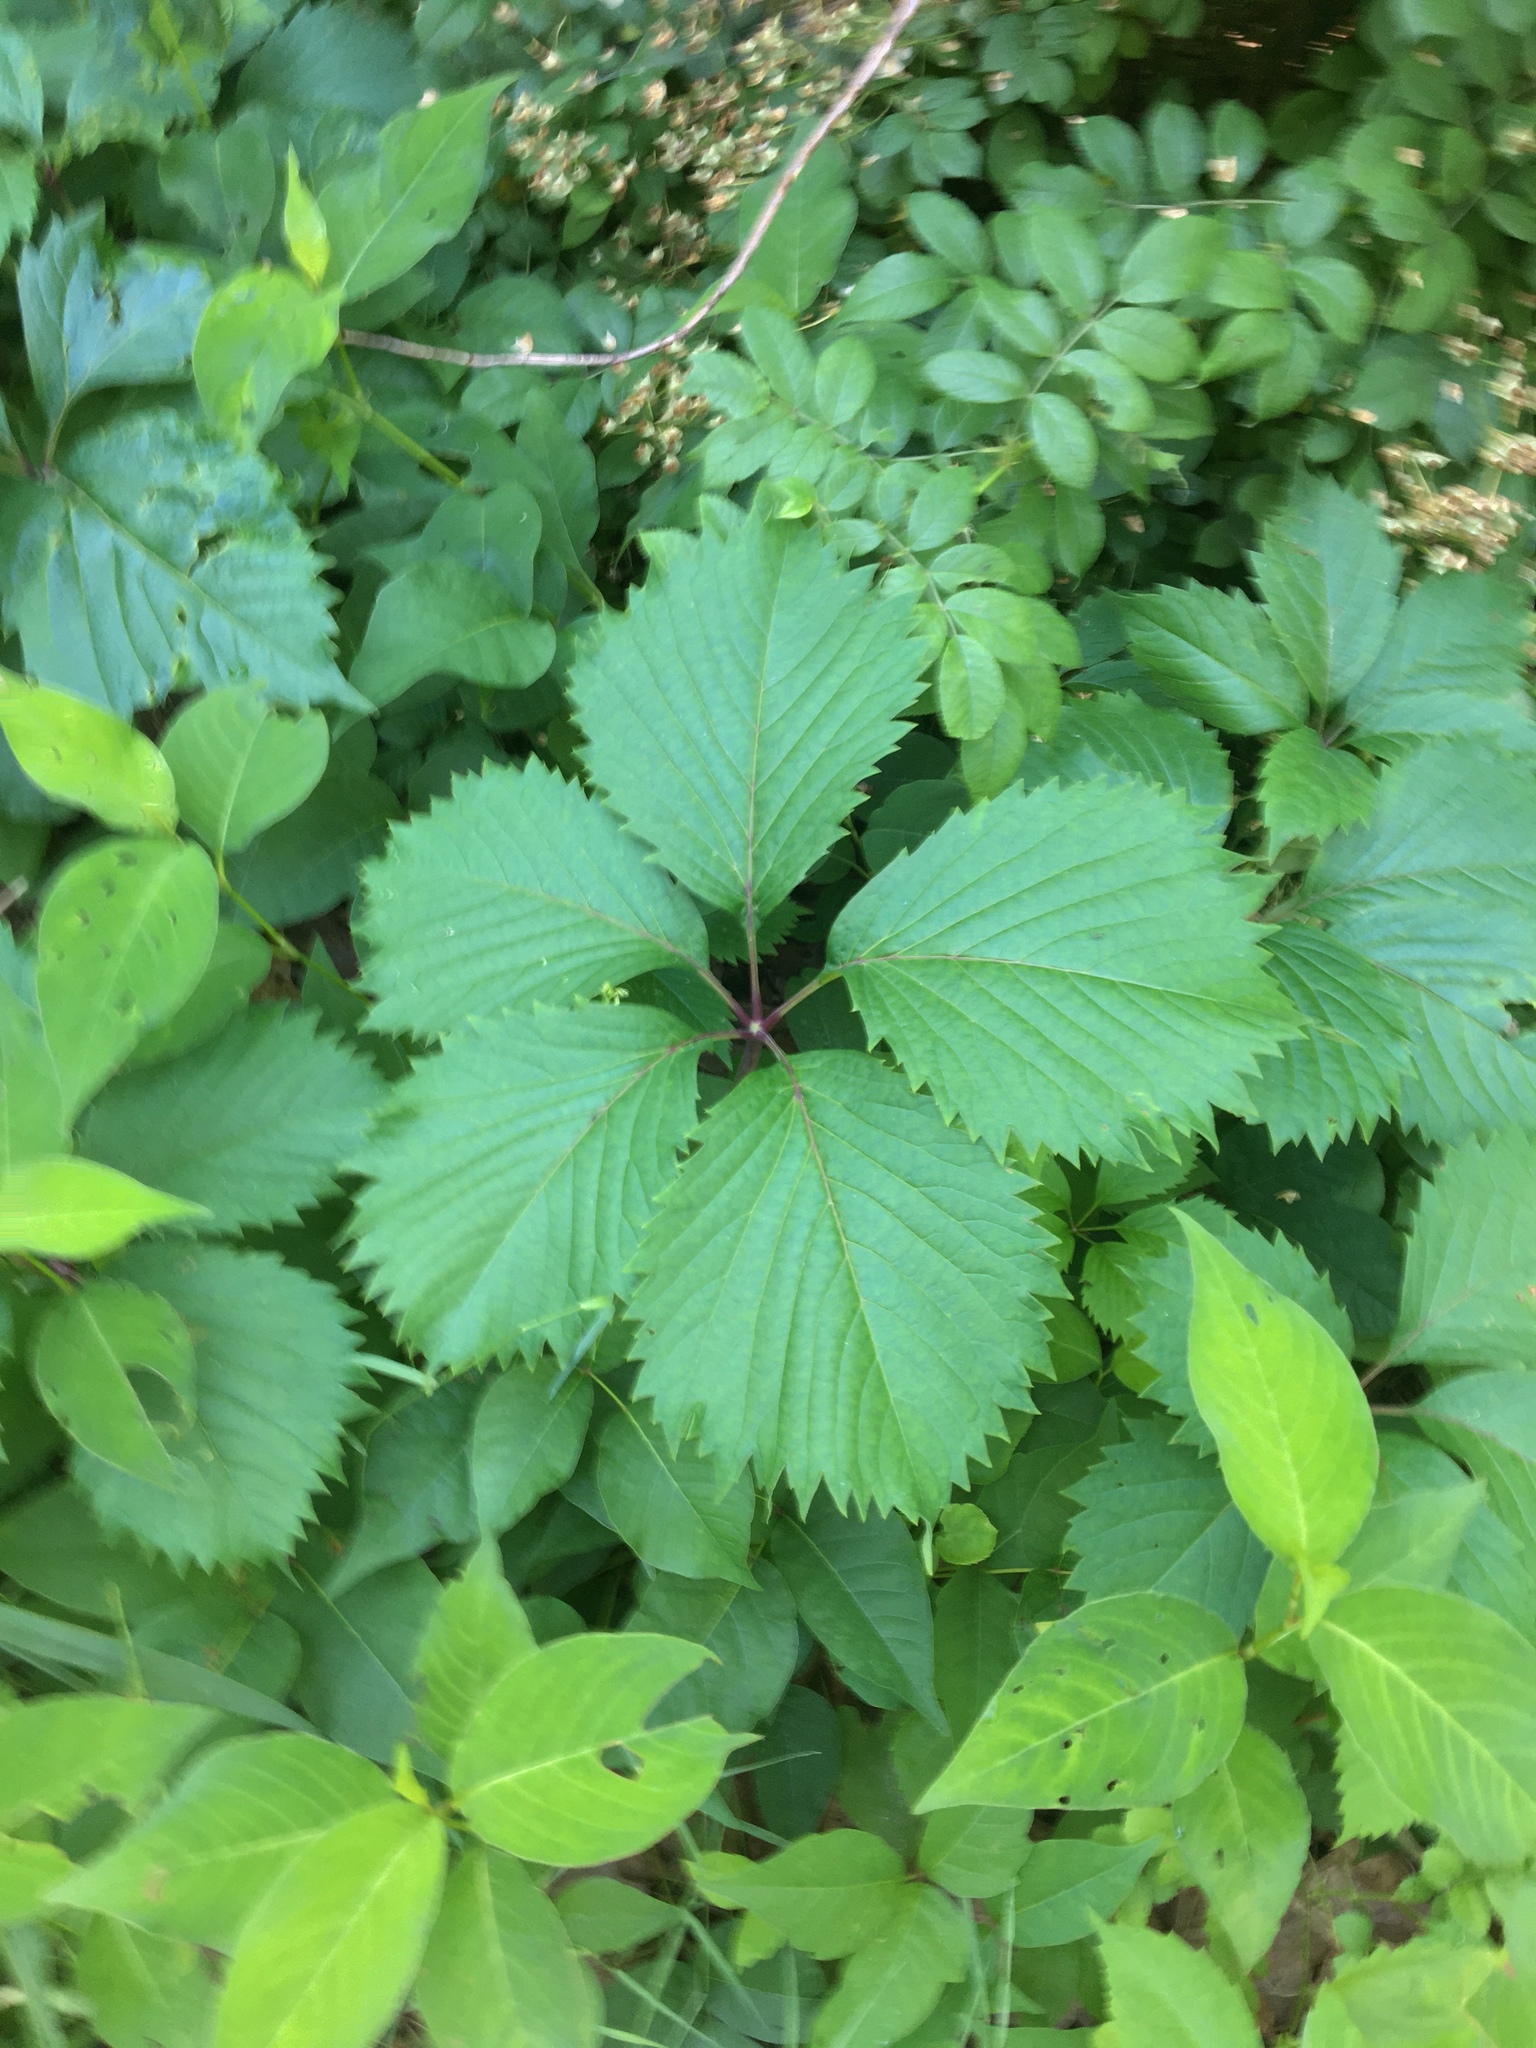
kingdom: Plantae
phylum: Tracheophyta
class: Magnoliopsida
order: Vitales
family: Vitaceae
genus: Parthenocissus
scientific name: Parthenocissus inserta
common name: False virginia-creeper
